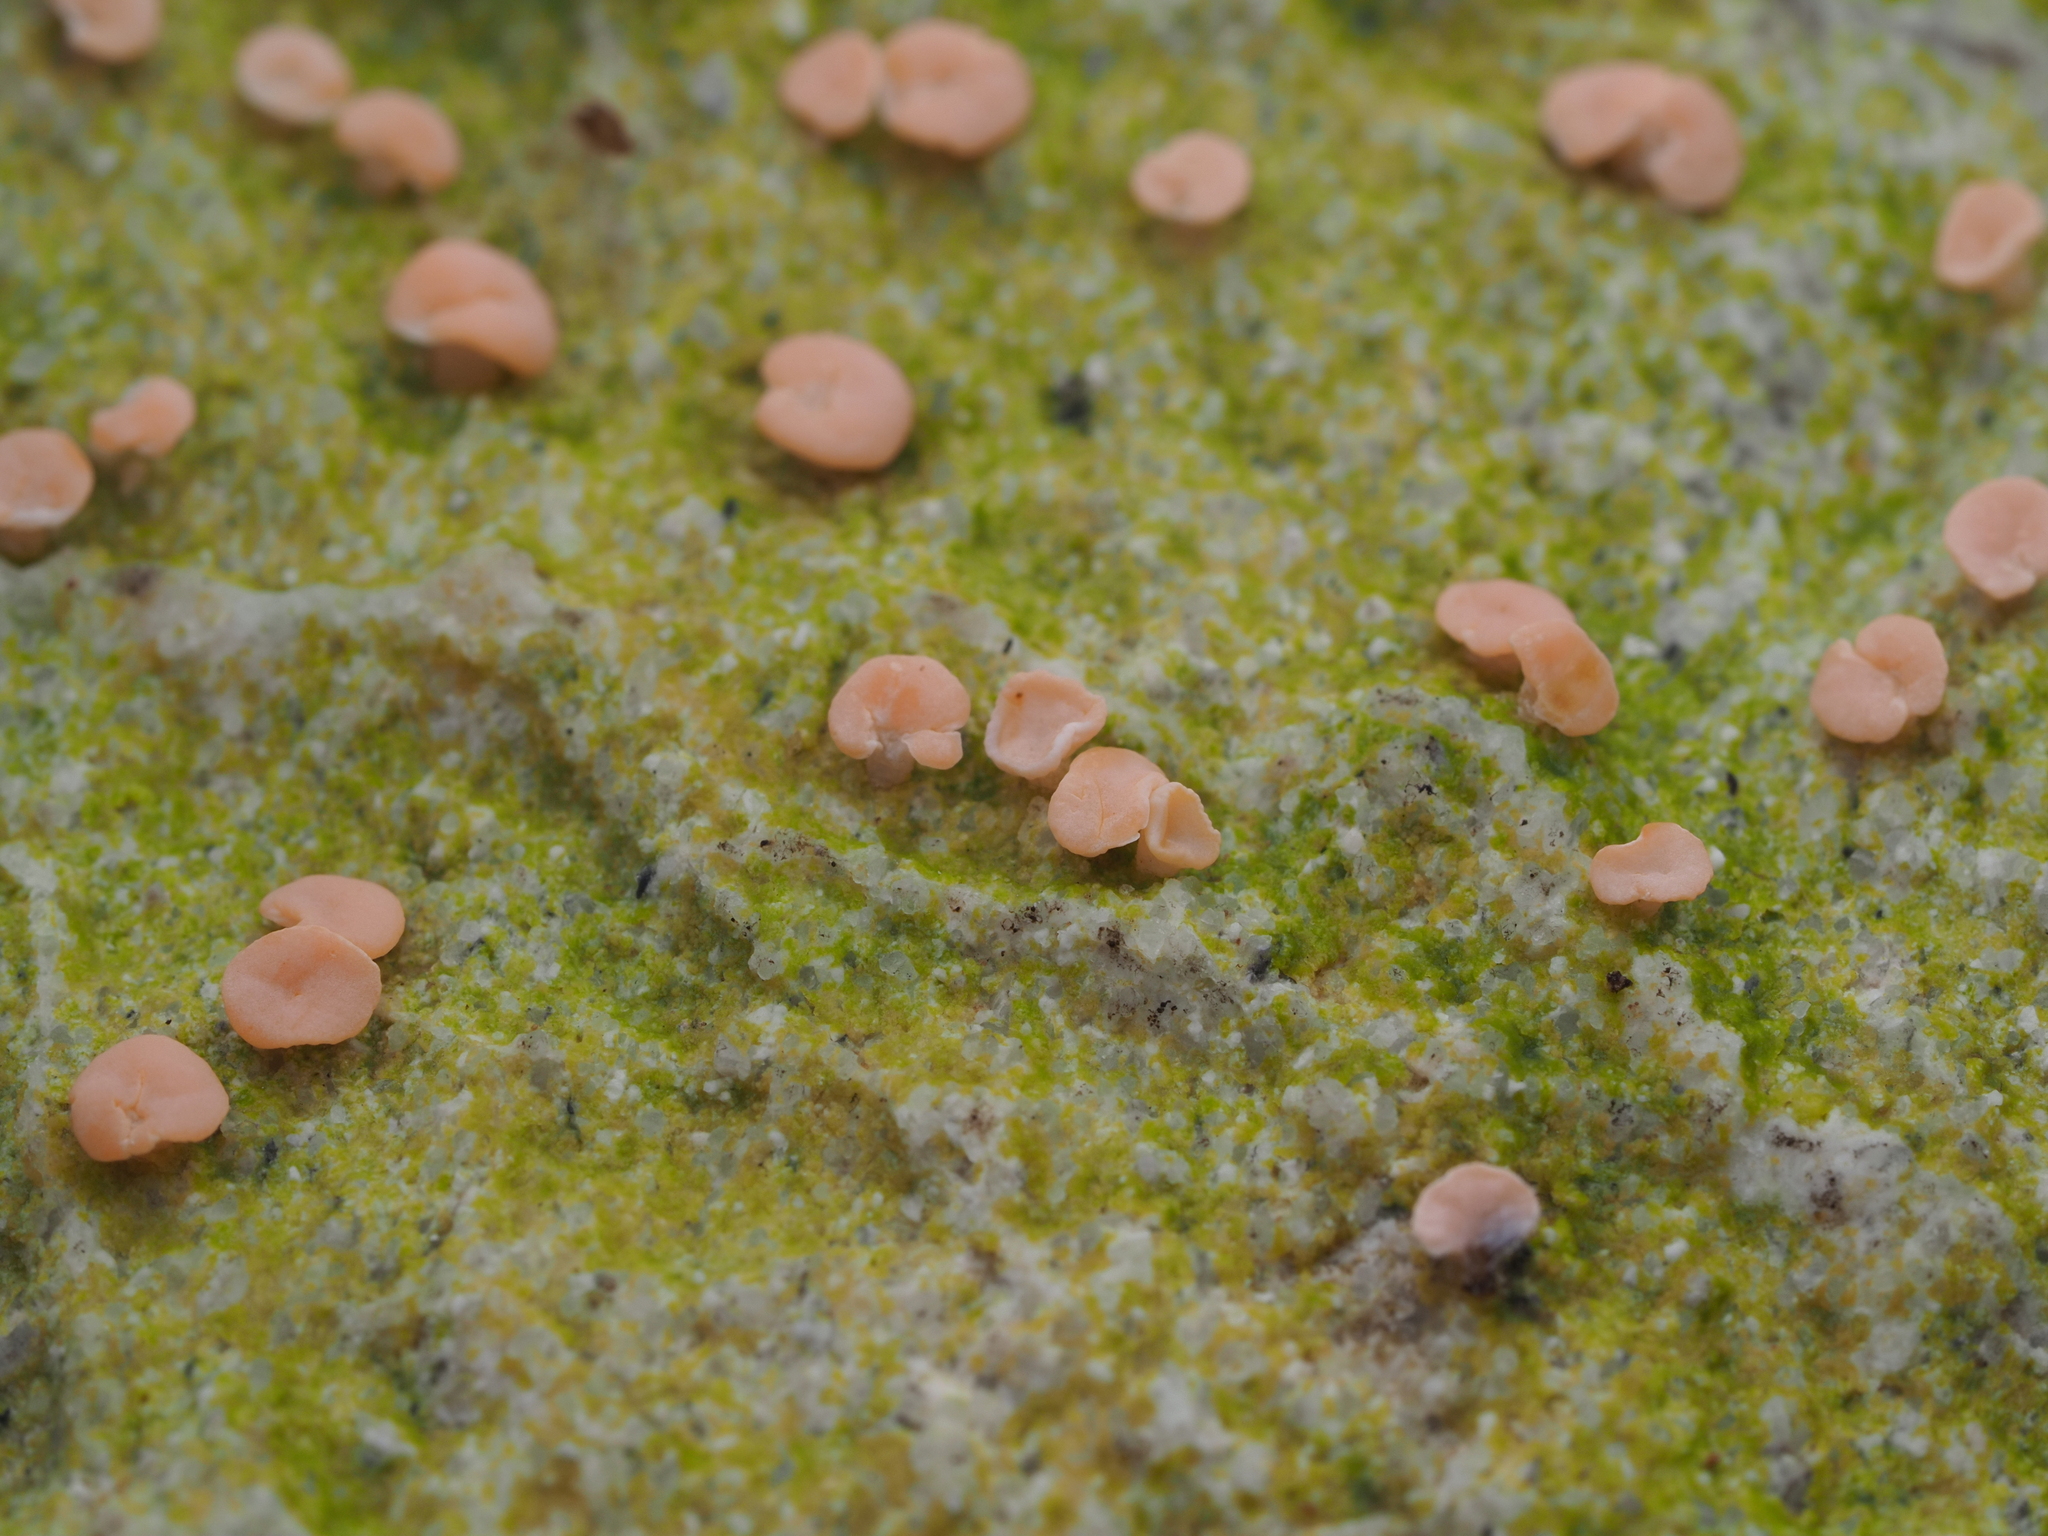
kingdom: Fungi
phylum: Ascomycota
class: Lecanoromycetes
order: Pertusariales
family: Icmadophilaceae
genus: Dibaeis
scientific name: Dibaeis absoluta
